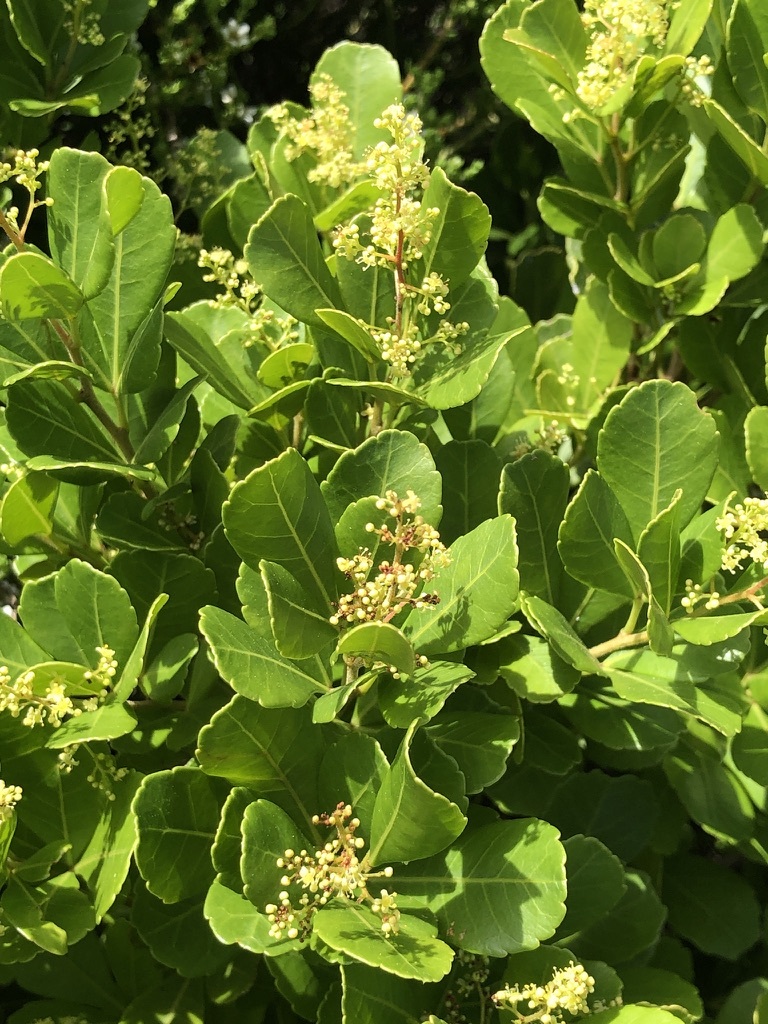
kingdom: Plantae
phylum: Tracheophyta
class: Magnoliopsida
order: Sapindales
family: Anacardiaceae
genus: Searsia
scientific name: Searsia crenata
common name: Crowberry
